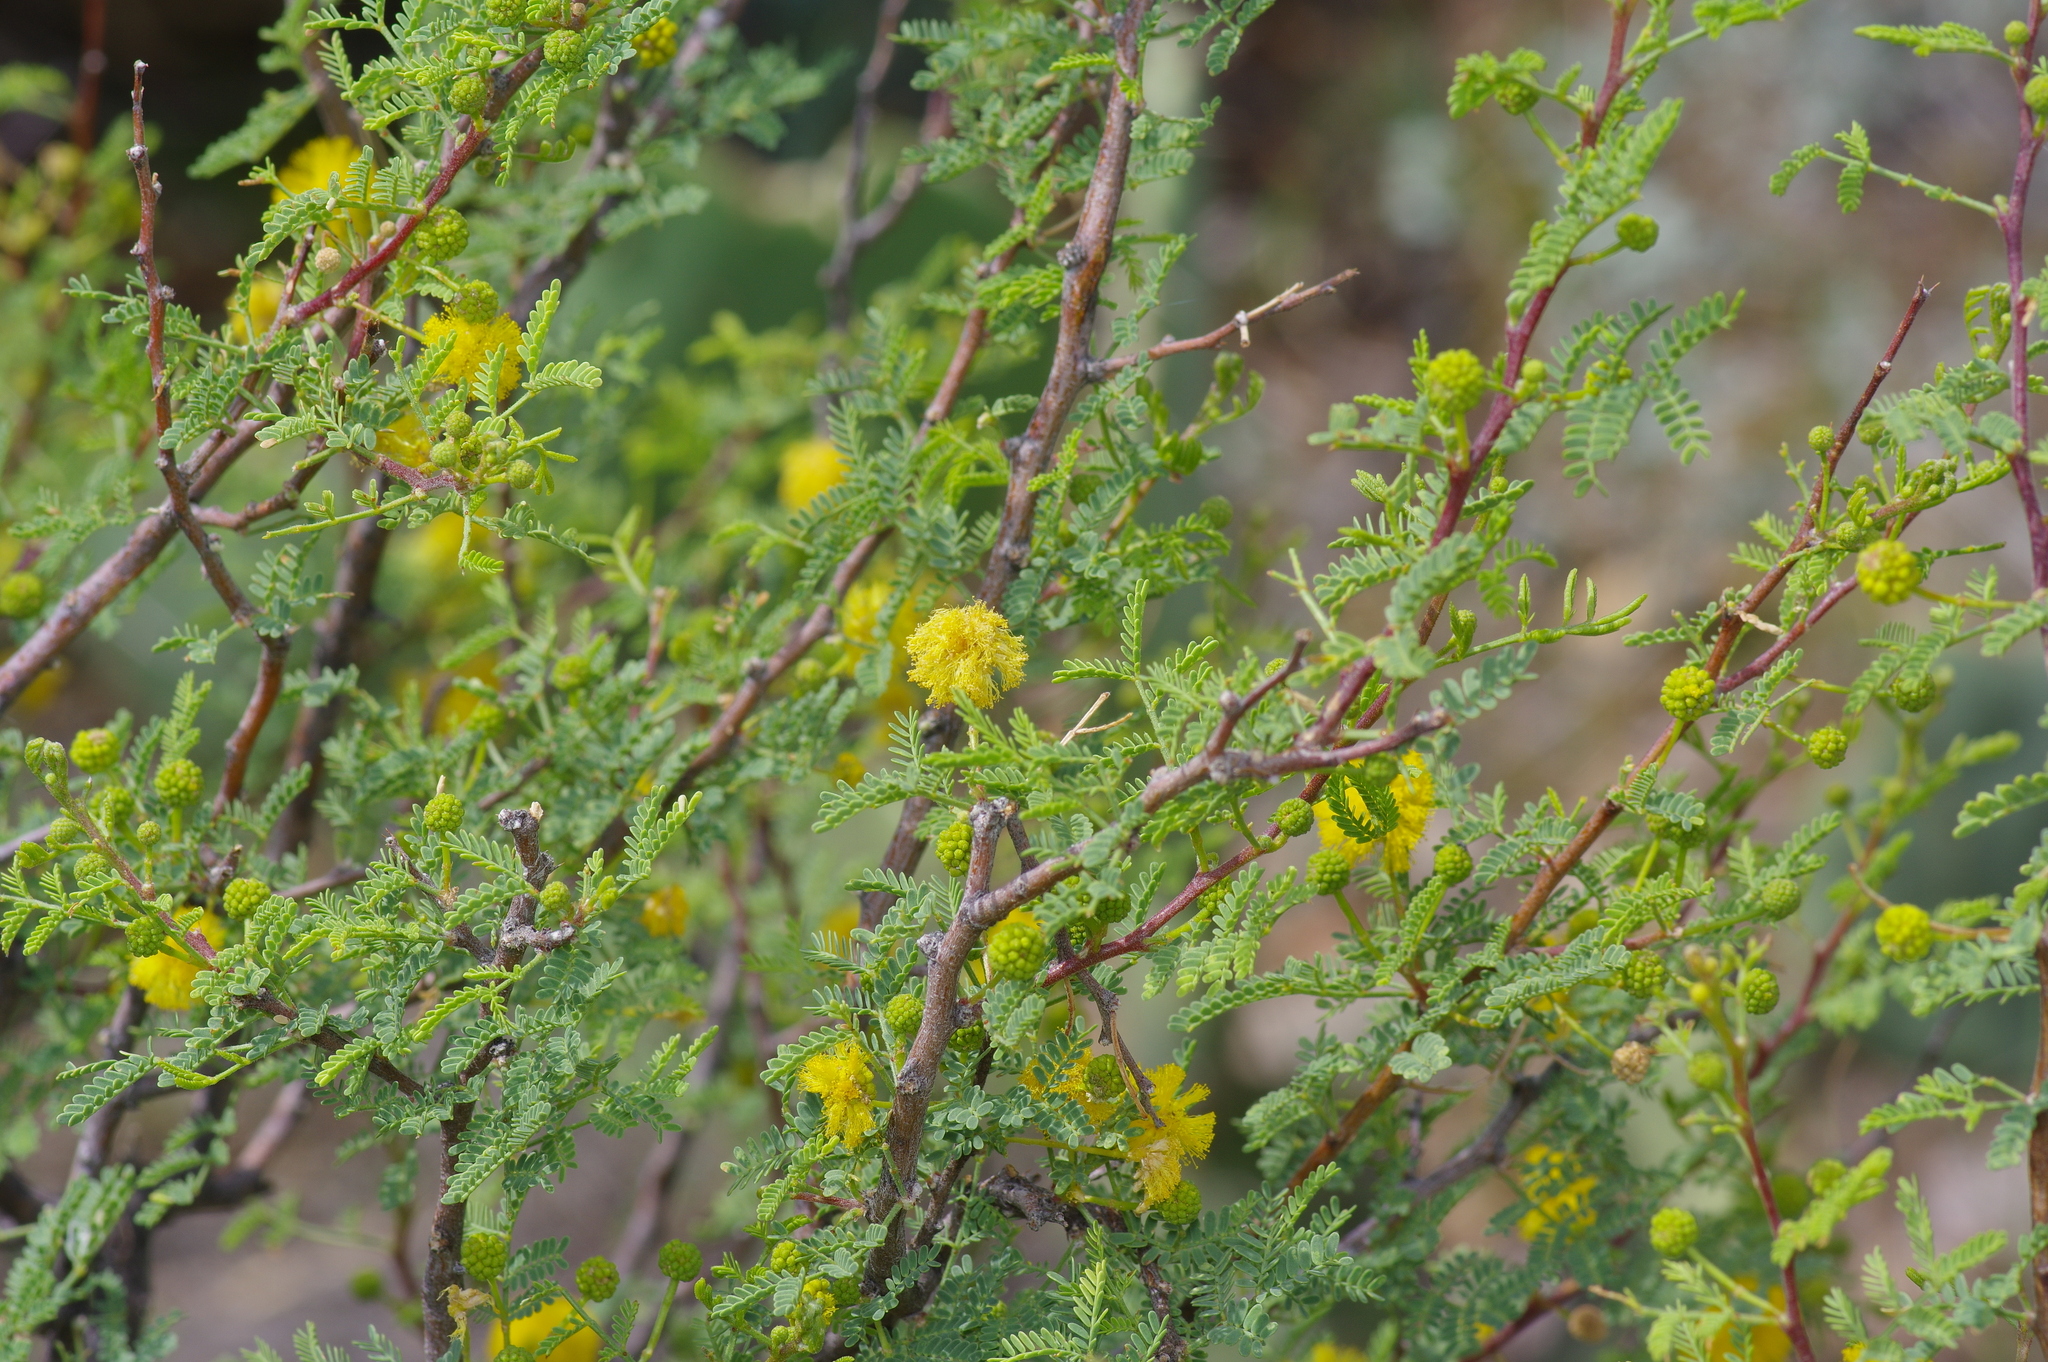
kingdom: Plantae
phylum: Tracheophyta
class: Magnoliopsida
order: Fabales
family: Fabaceae
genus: Vachellia
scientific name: Vachellia constricta
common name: Mescat acacia
